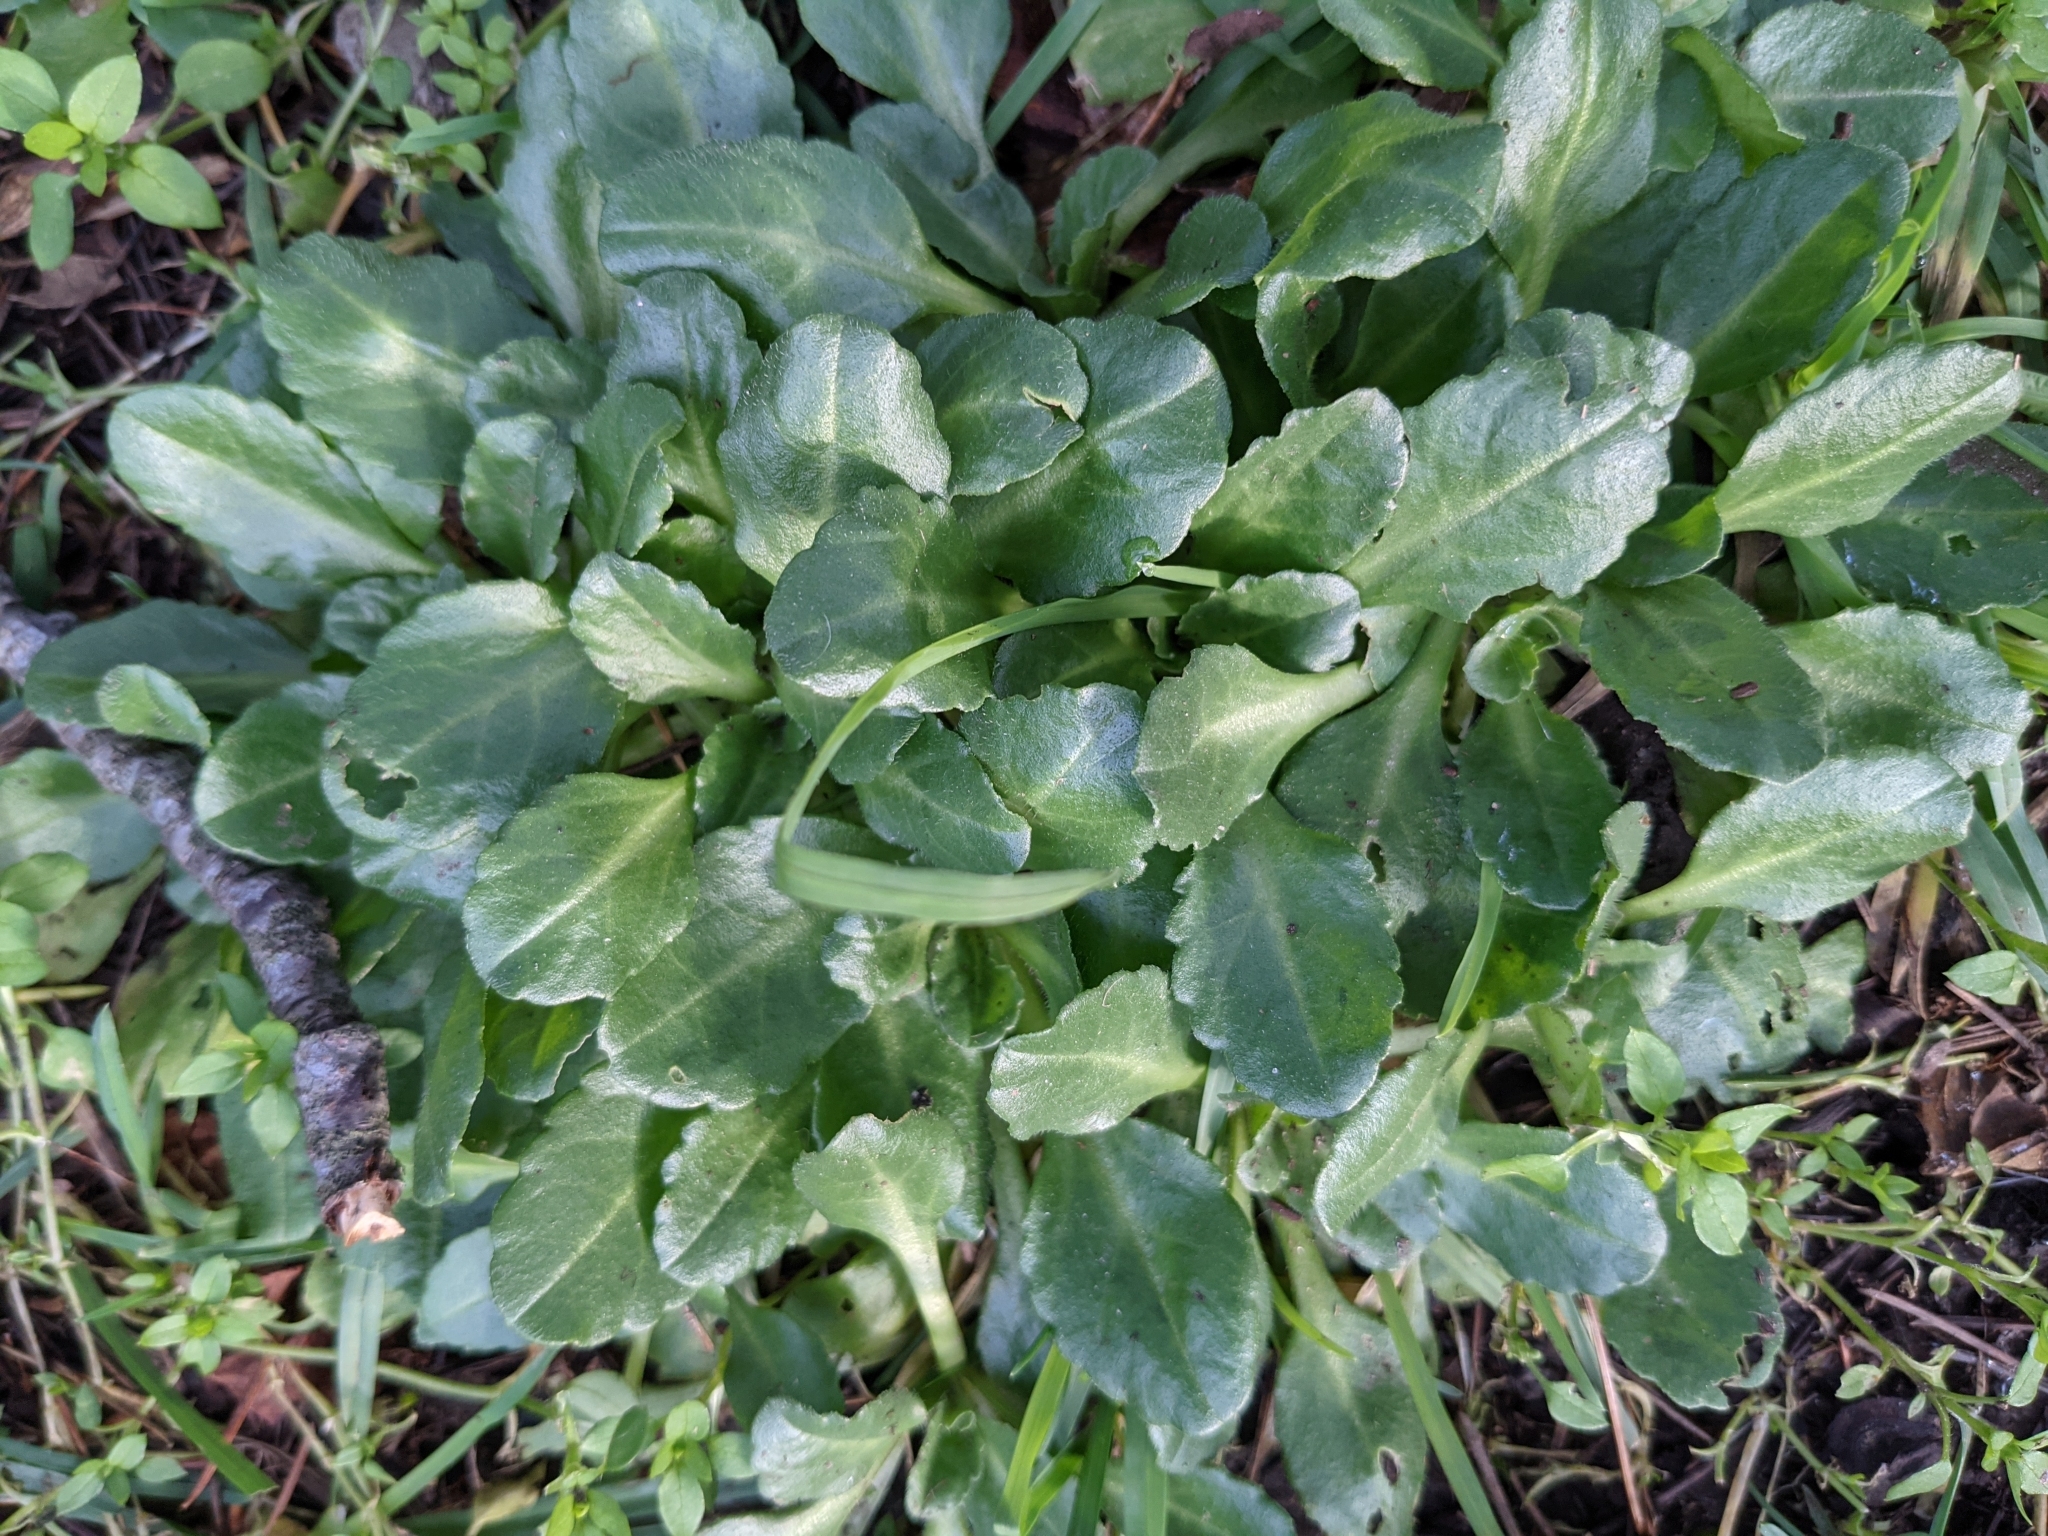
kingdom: Plantae
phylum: Tracheophyta
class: Magnoliopsida
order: Asterales
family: Asteraceae
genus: Bellis
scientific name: Bellis perennis
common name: Lawndaisy
